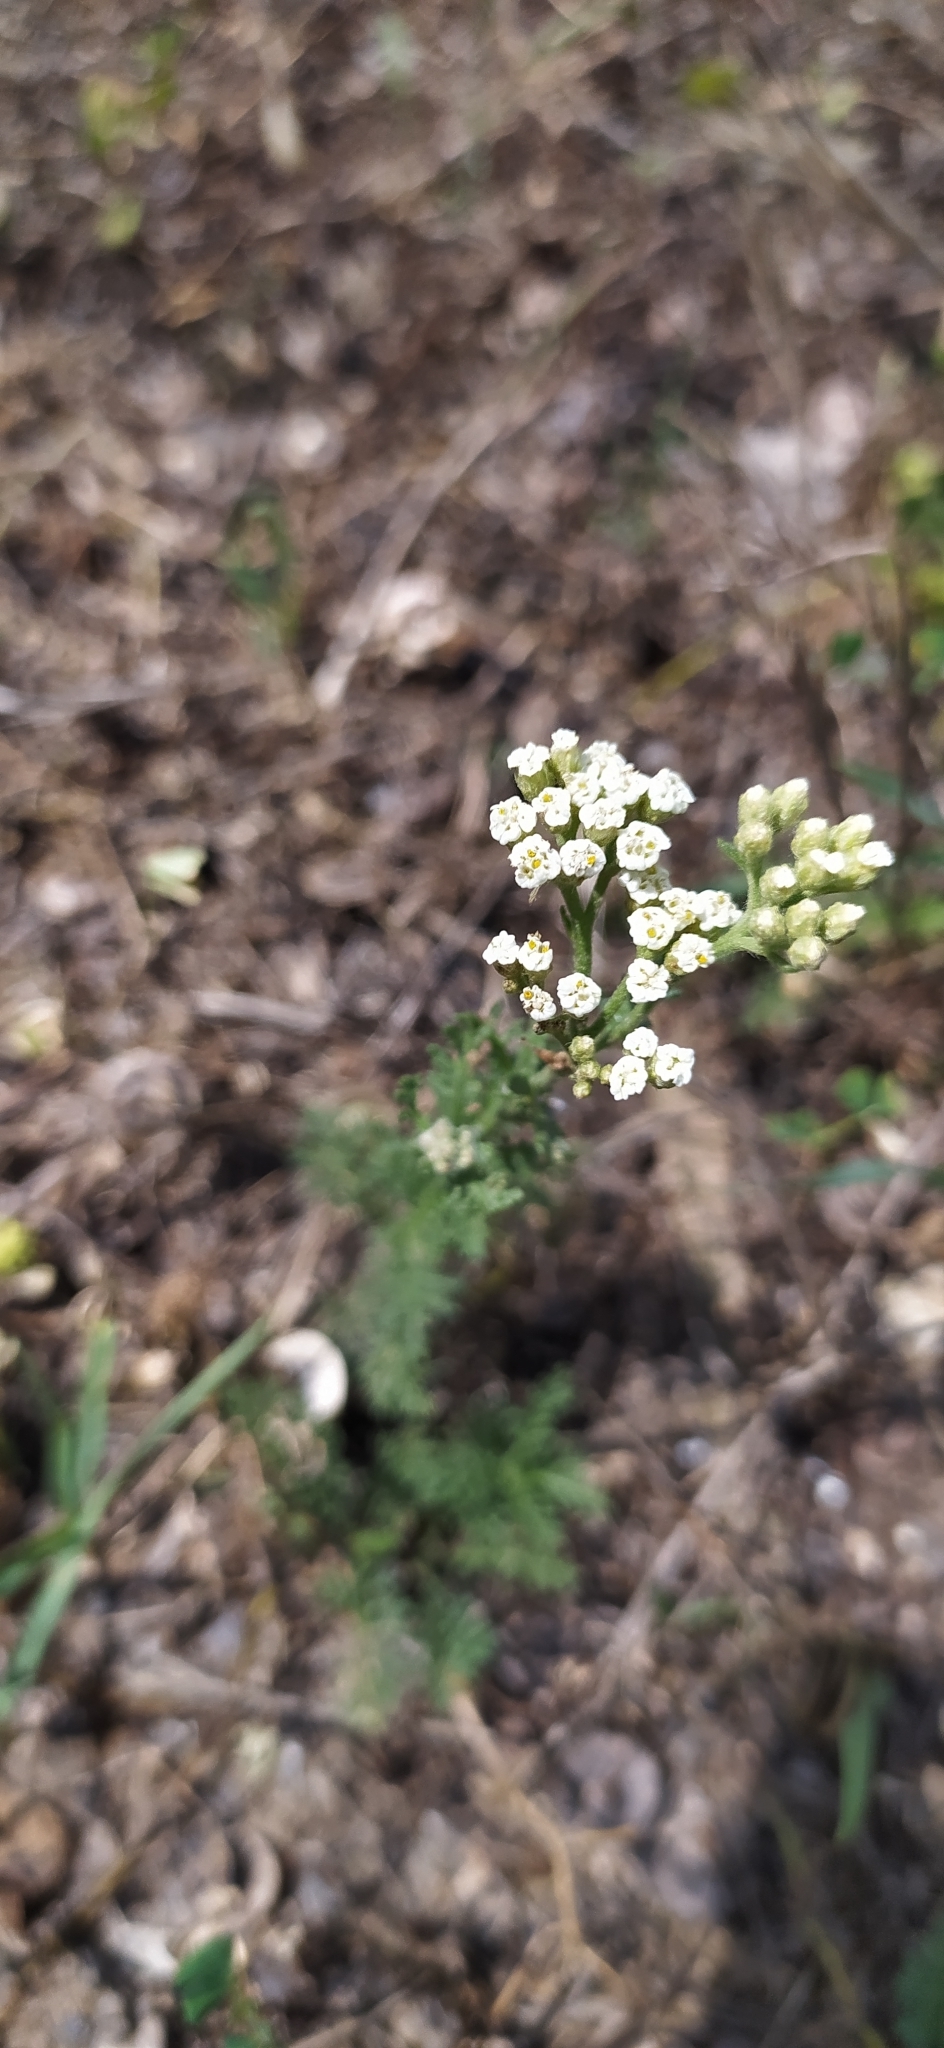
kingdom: Plantae
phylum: Tracheophyta
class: Magnoliopsida
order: Asterales
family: Asteraceae
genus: Achillea
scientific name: Achillea nobilis
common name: Noble yarrow
